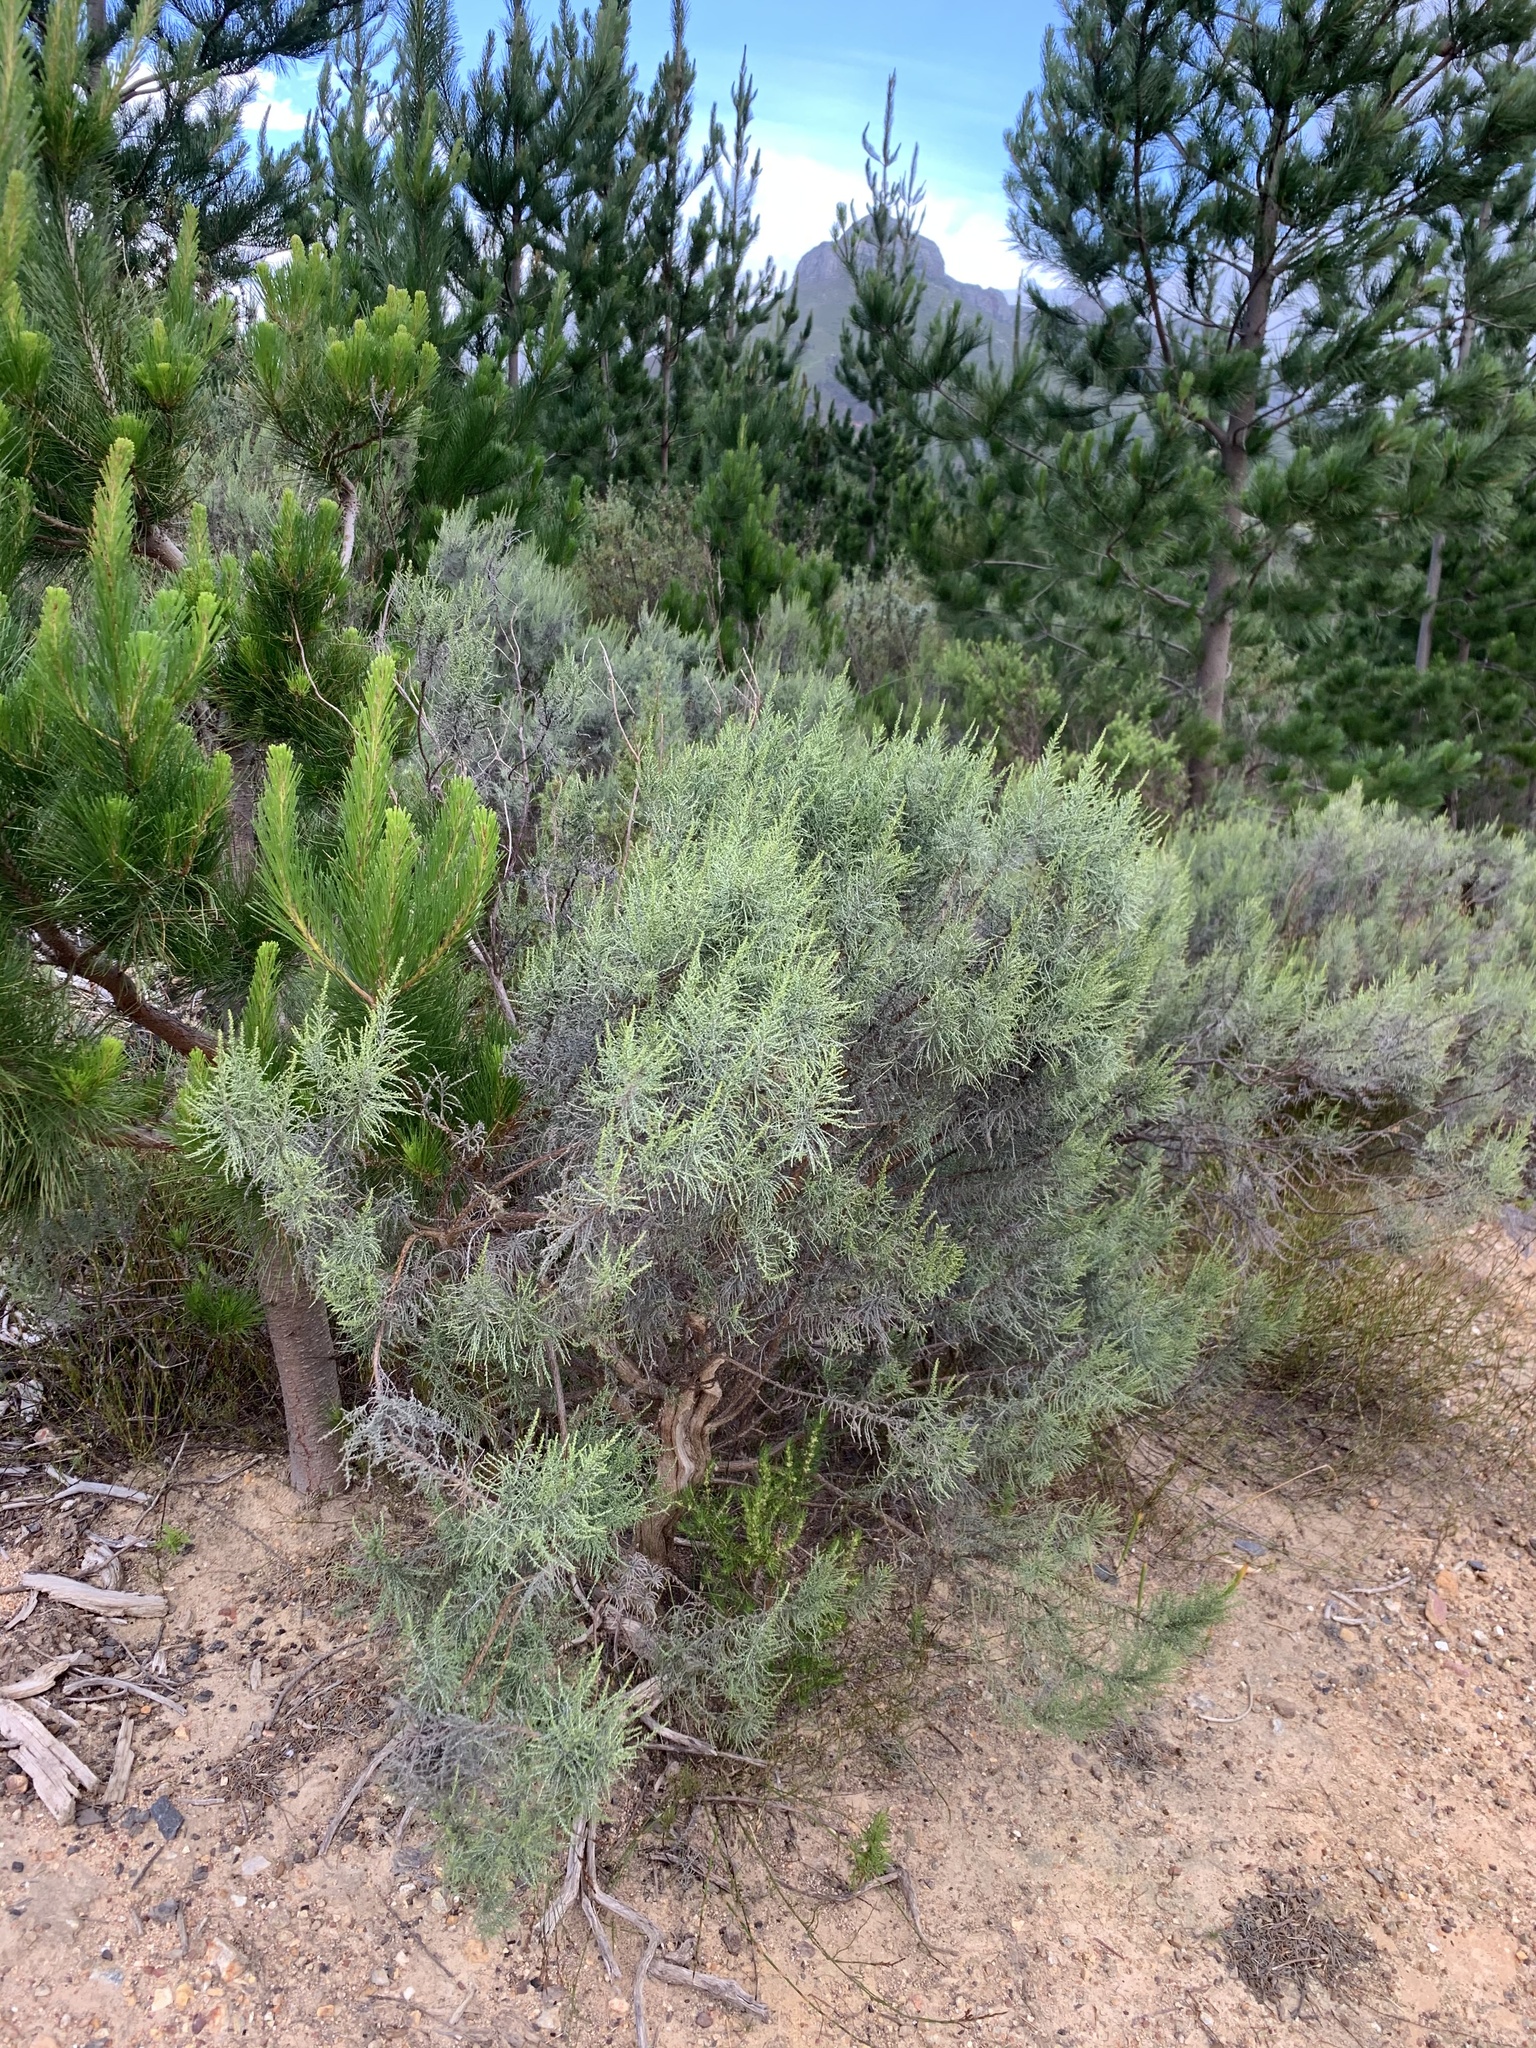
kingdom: Plantae
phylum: Tracheophyta
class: Magnoliopsida
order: Asterales
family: Asteraceae
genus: Dicerothamnus
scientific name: Dicerothamnus rhinocerotis
